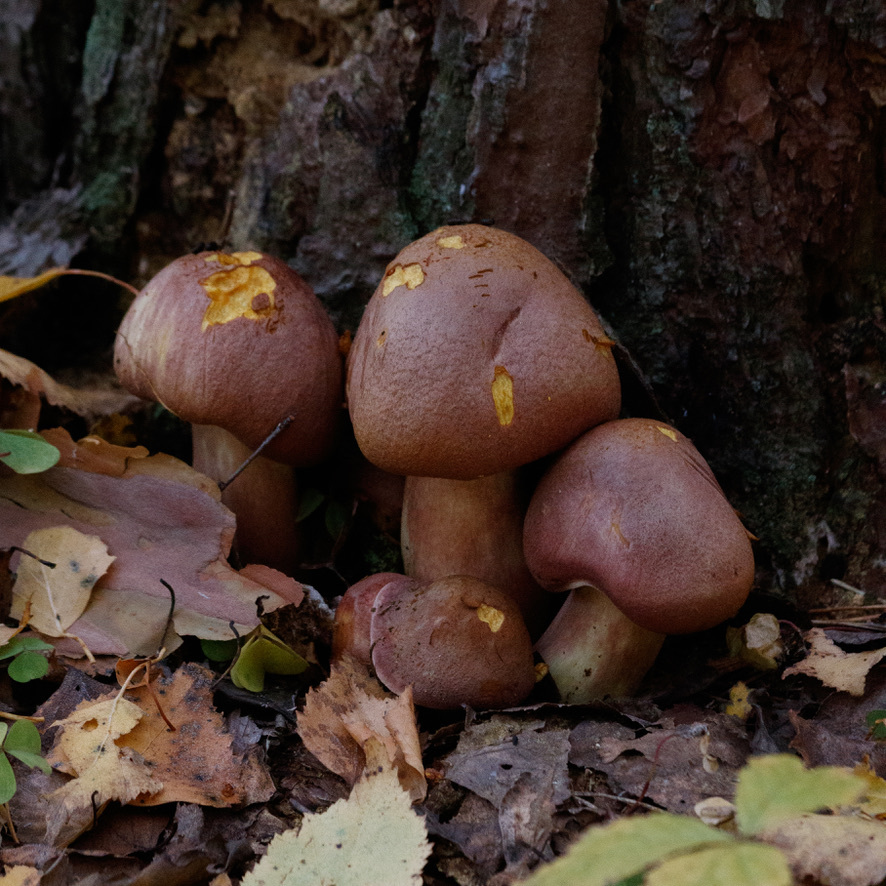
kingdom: Fungi
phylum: Basidiomycota
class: Agaricomycetes
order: Agaricales
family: Tricholomataceae
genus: Tricholomopsis
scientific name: Tricholomopsis rutilans
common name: Plums and custard
